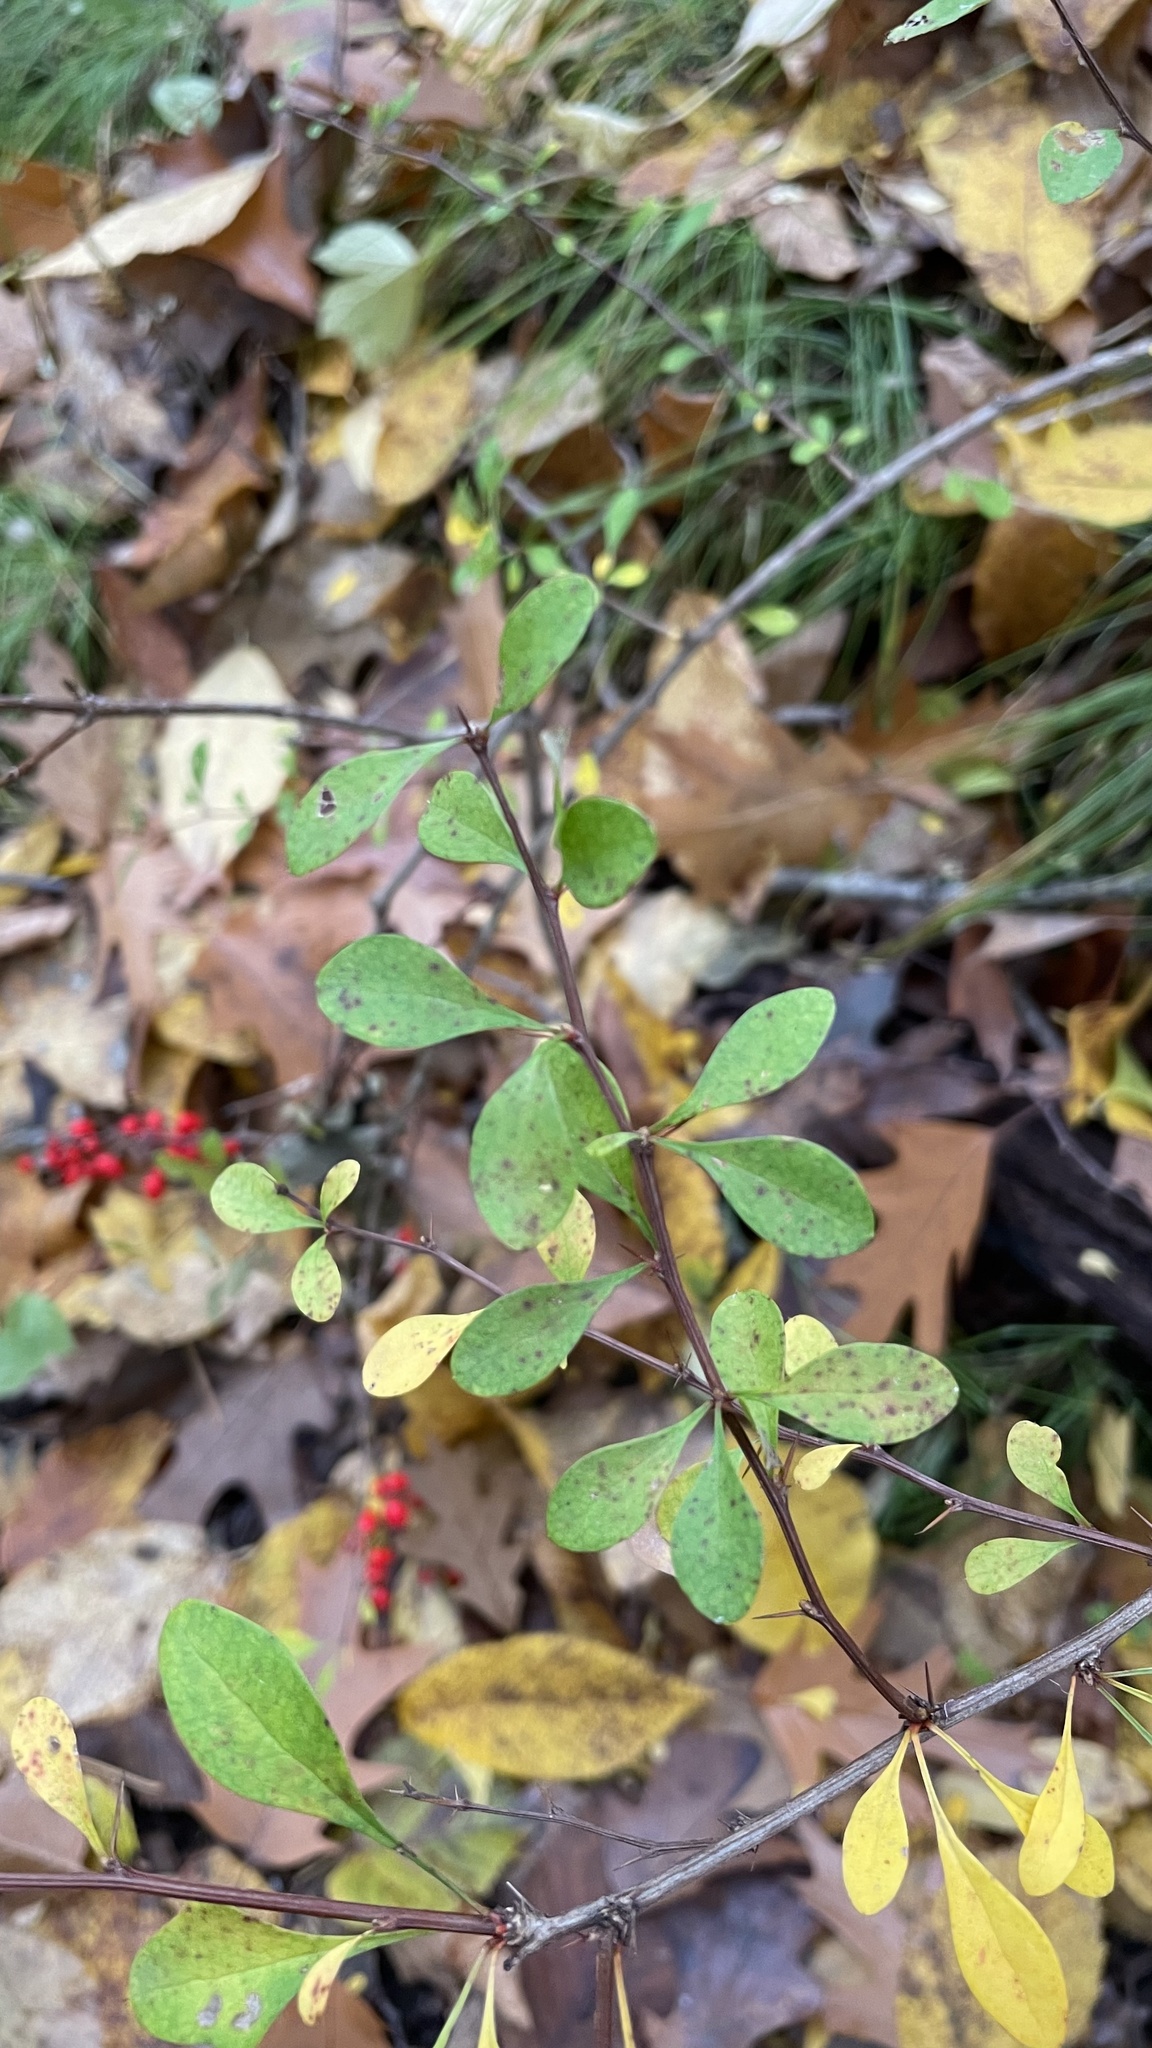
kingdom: Plantae
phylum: Tracheophyta
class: Magnoliopsida
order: Ranunculales
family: Berberidaceae
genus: Berberis
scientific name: Berberis thunbergii
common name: Japanese barberry
